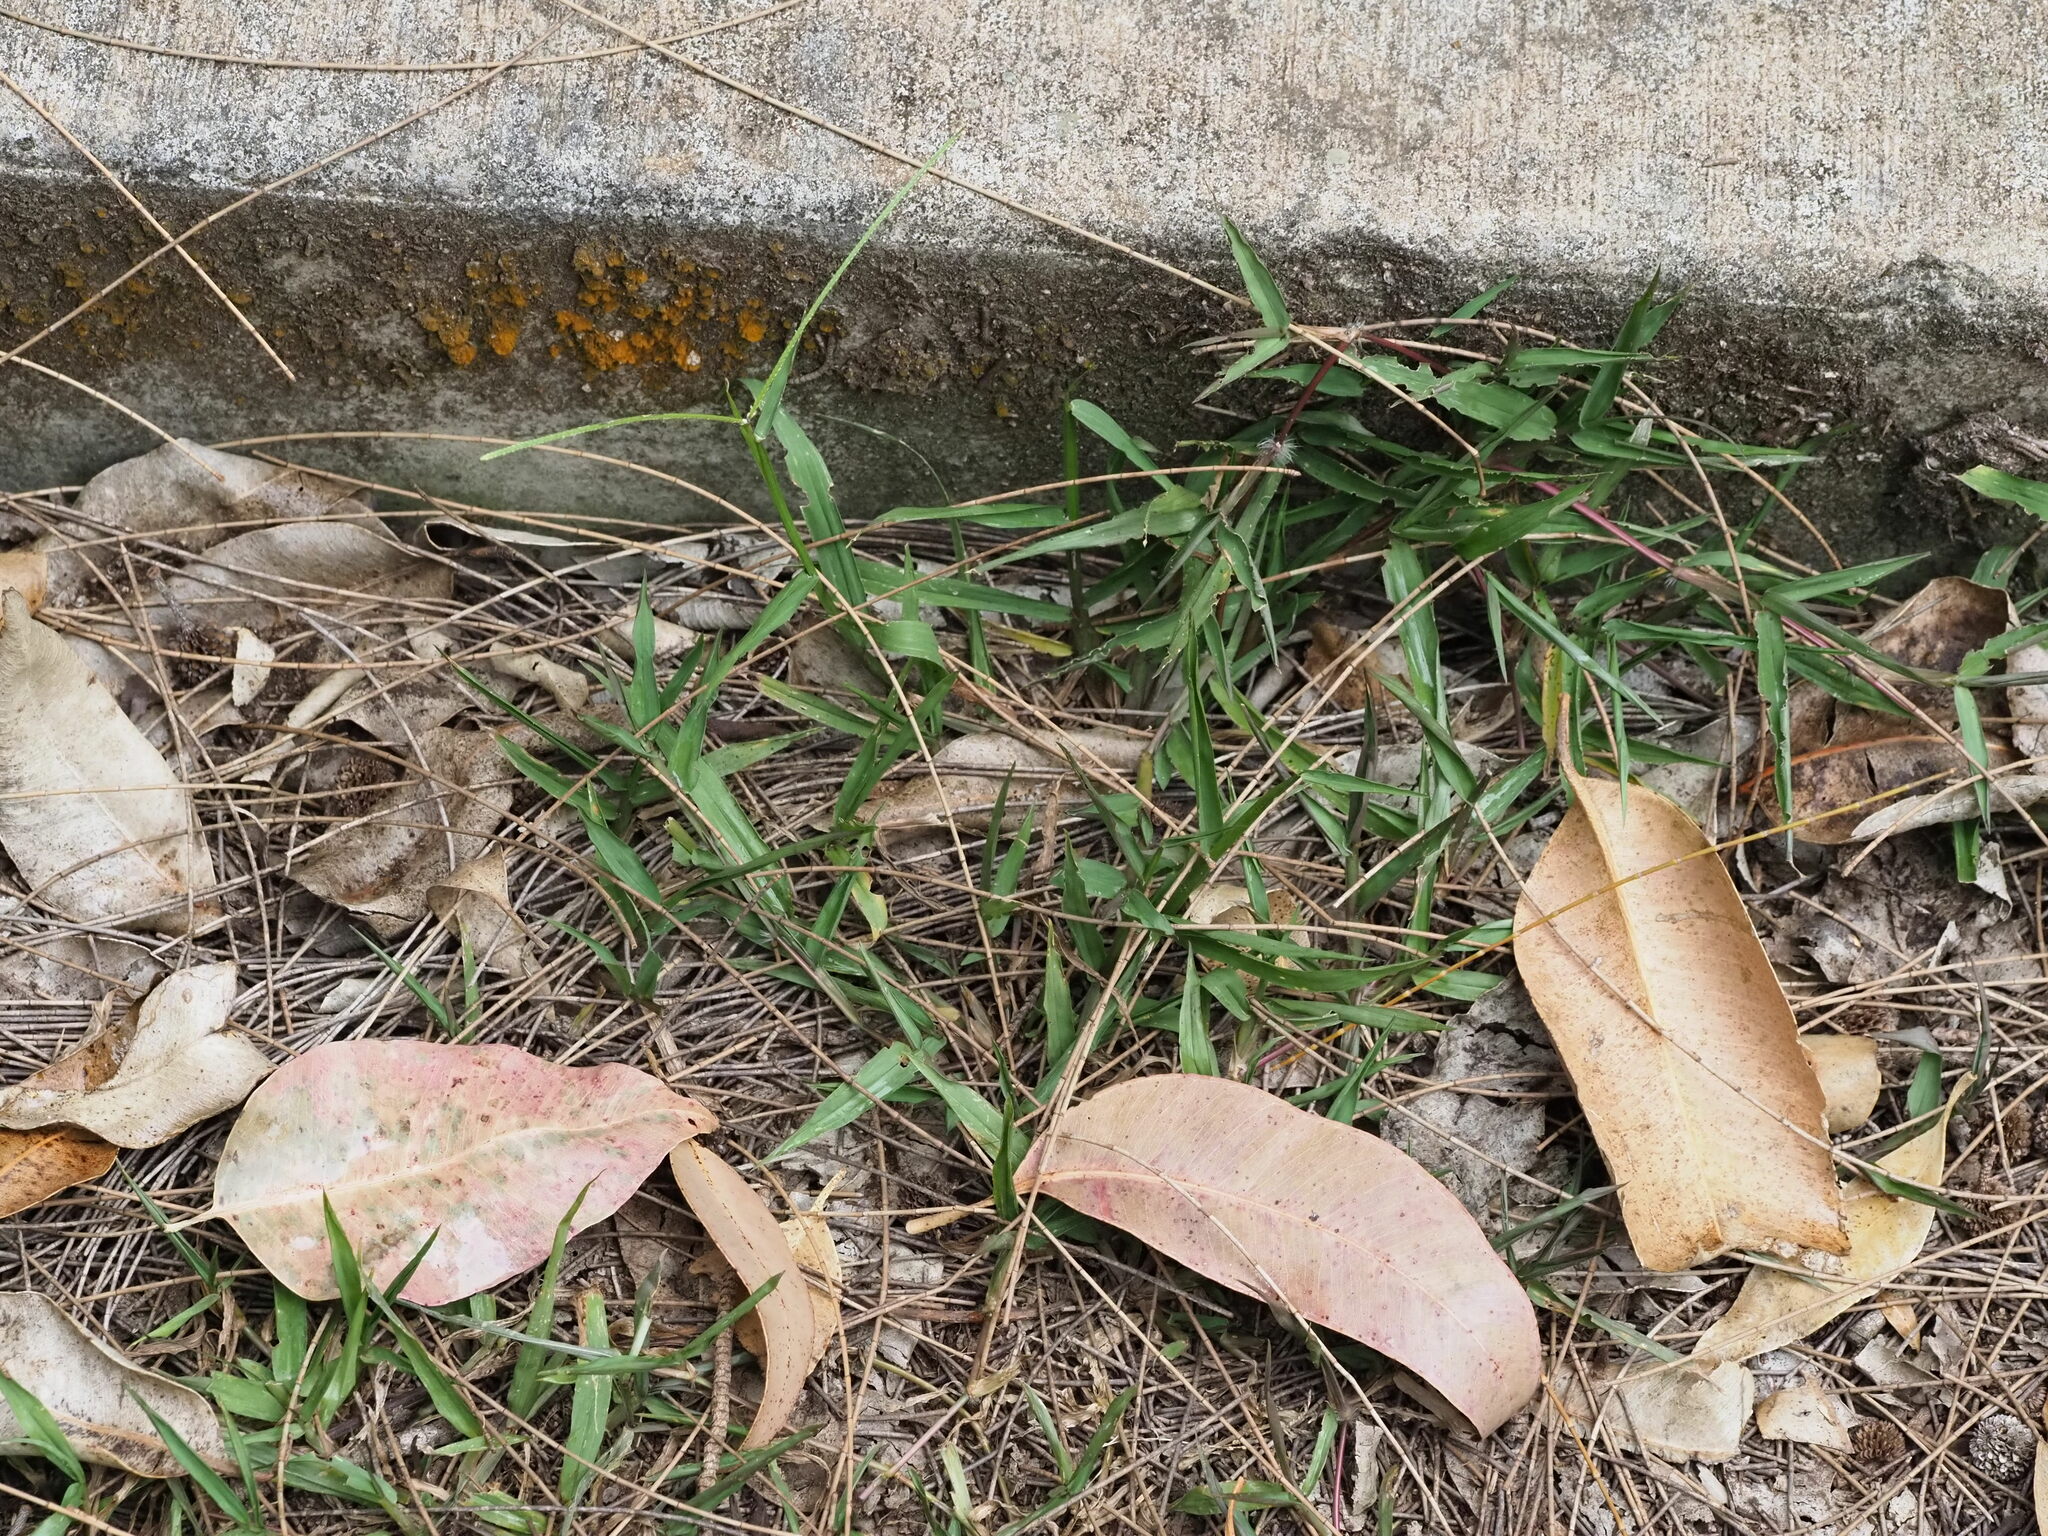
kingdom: Plantae
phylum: Tracheophyta
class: Liliopsida
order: Poales
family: Poaceae
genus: Paspalum
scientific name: Paspalum conjugatum
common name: Hilograss
